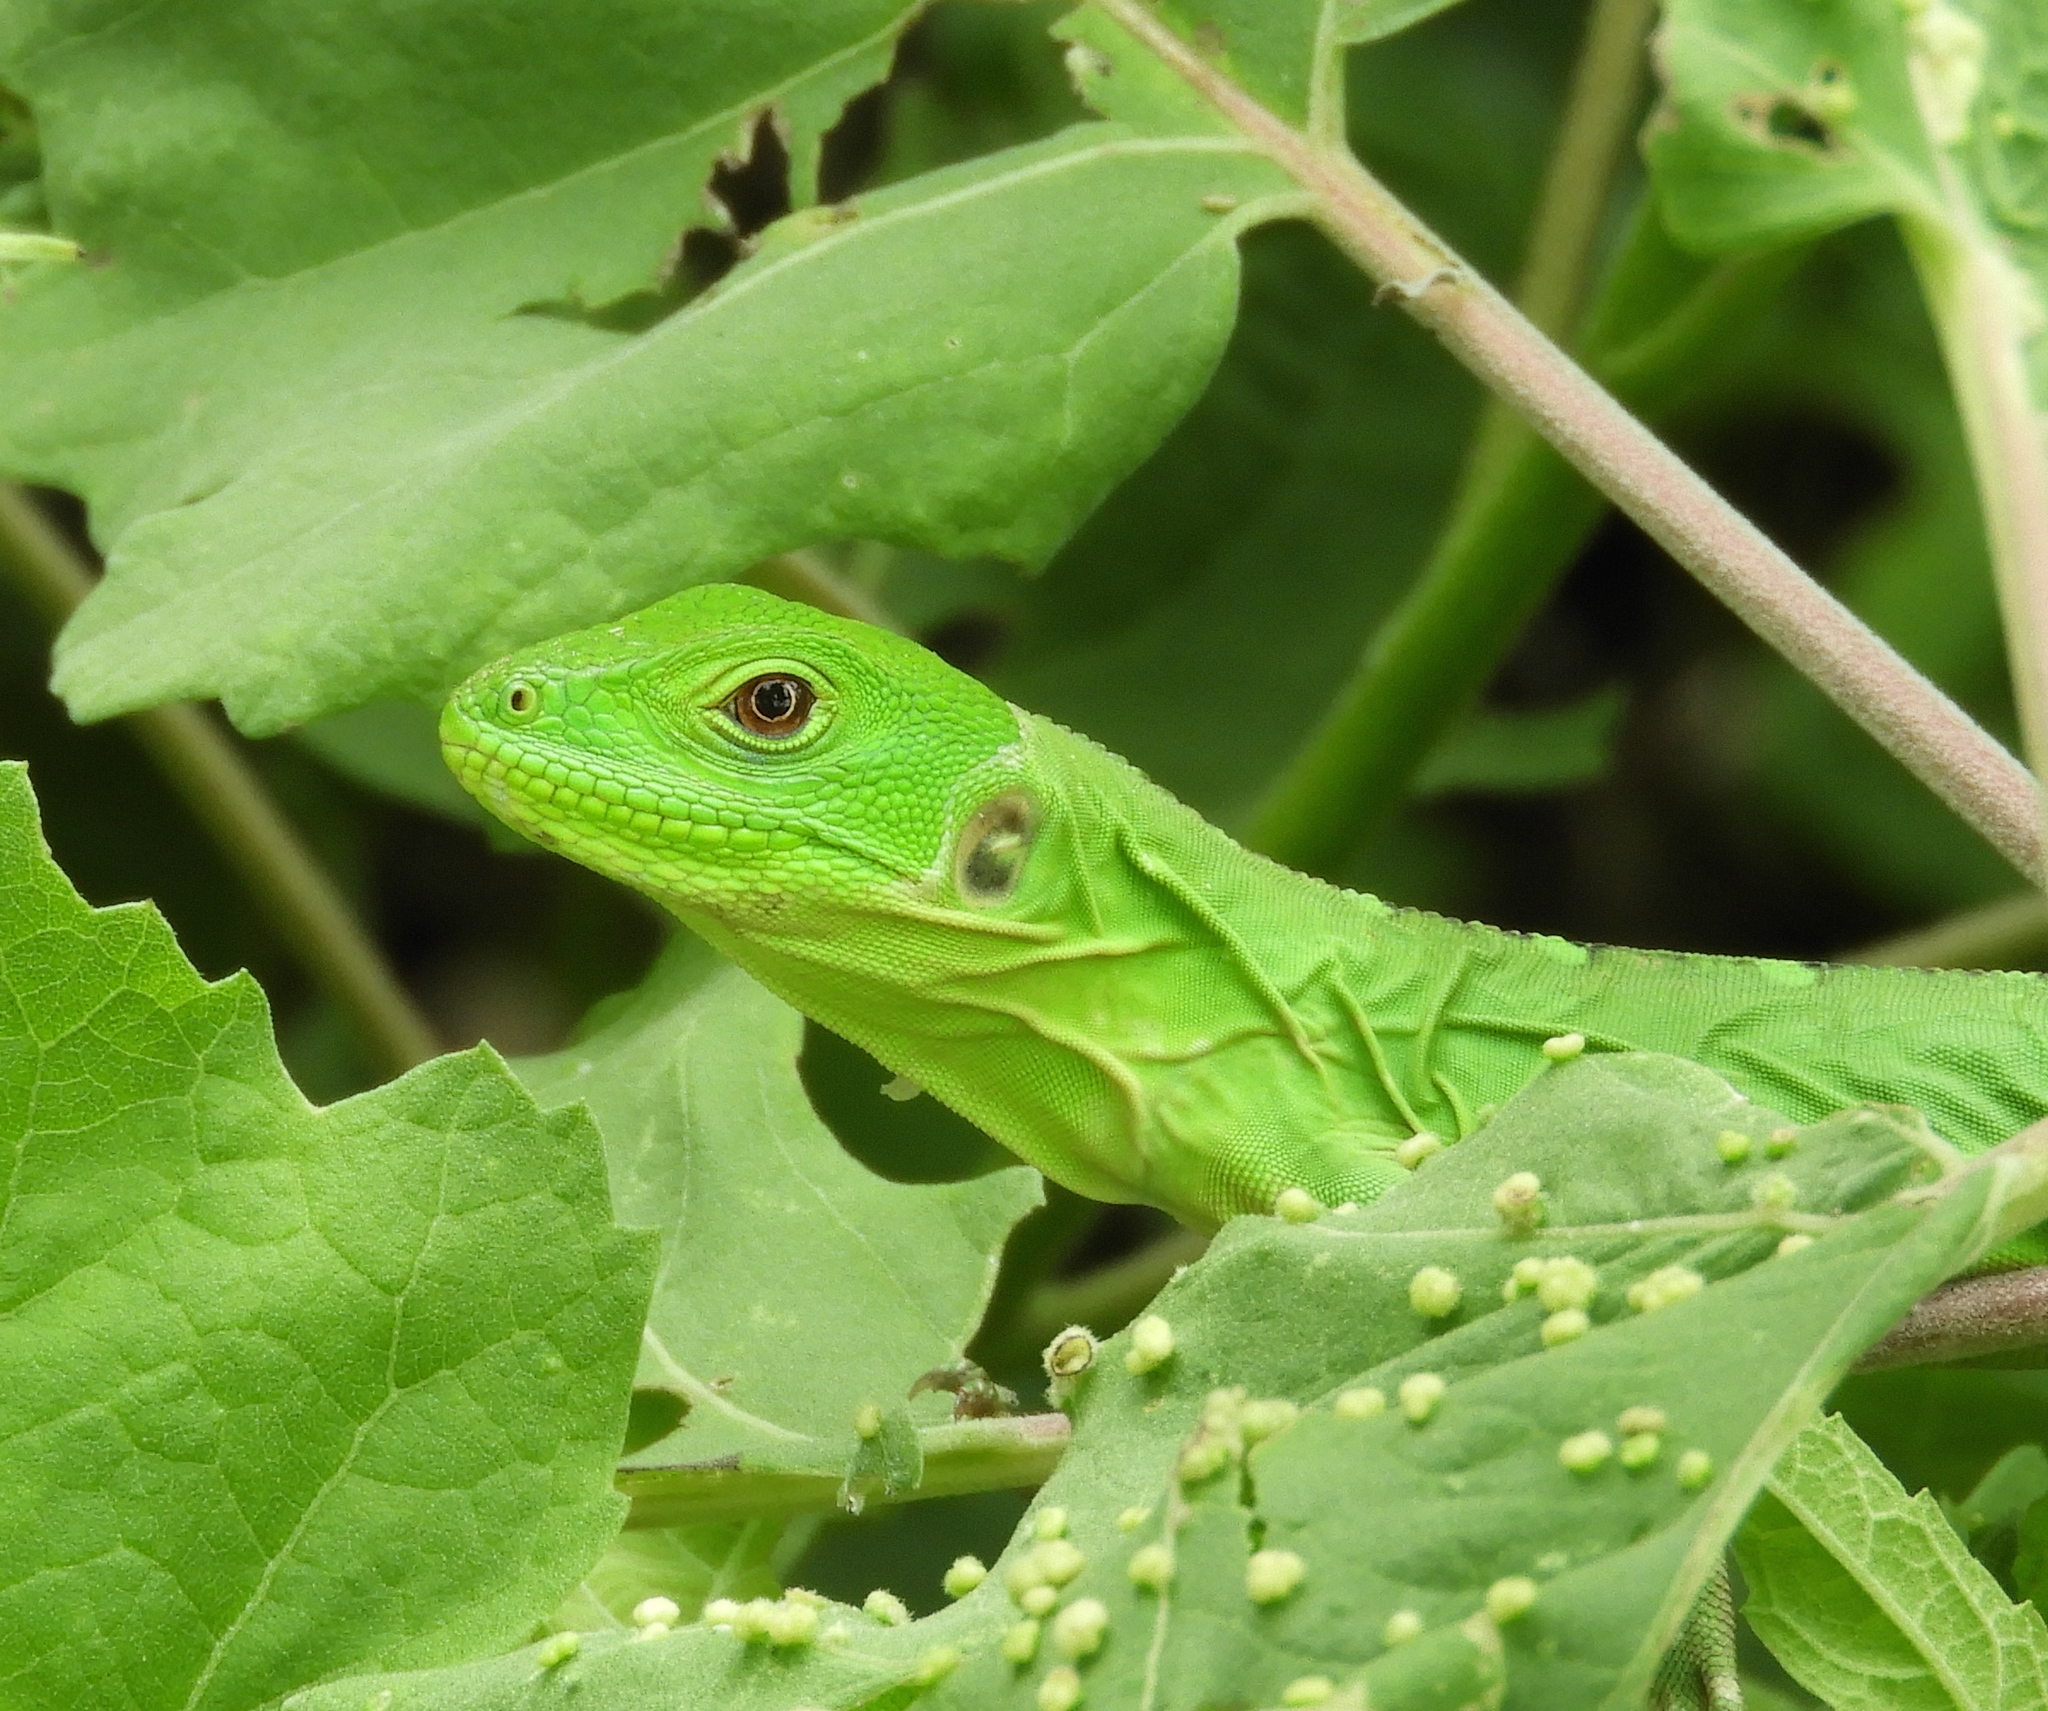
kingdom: Animalia
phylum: Chordata
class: Squamata
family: Iguanidae
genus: Ctenosaura
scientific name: Ctenosaura pectinata
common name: Guerreran spiny-tailed iguana
